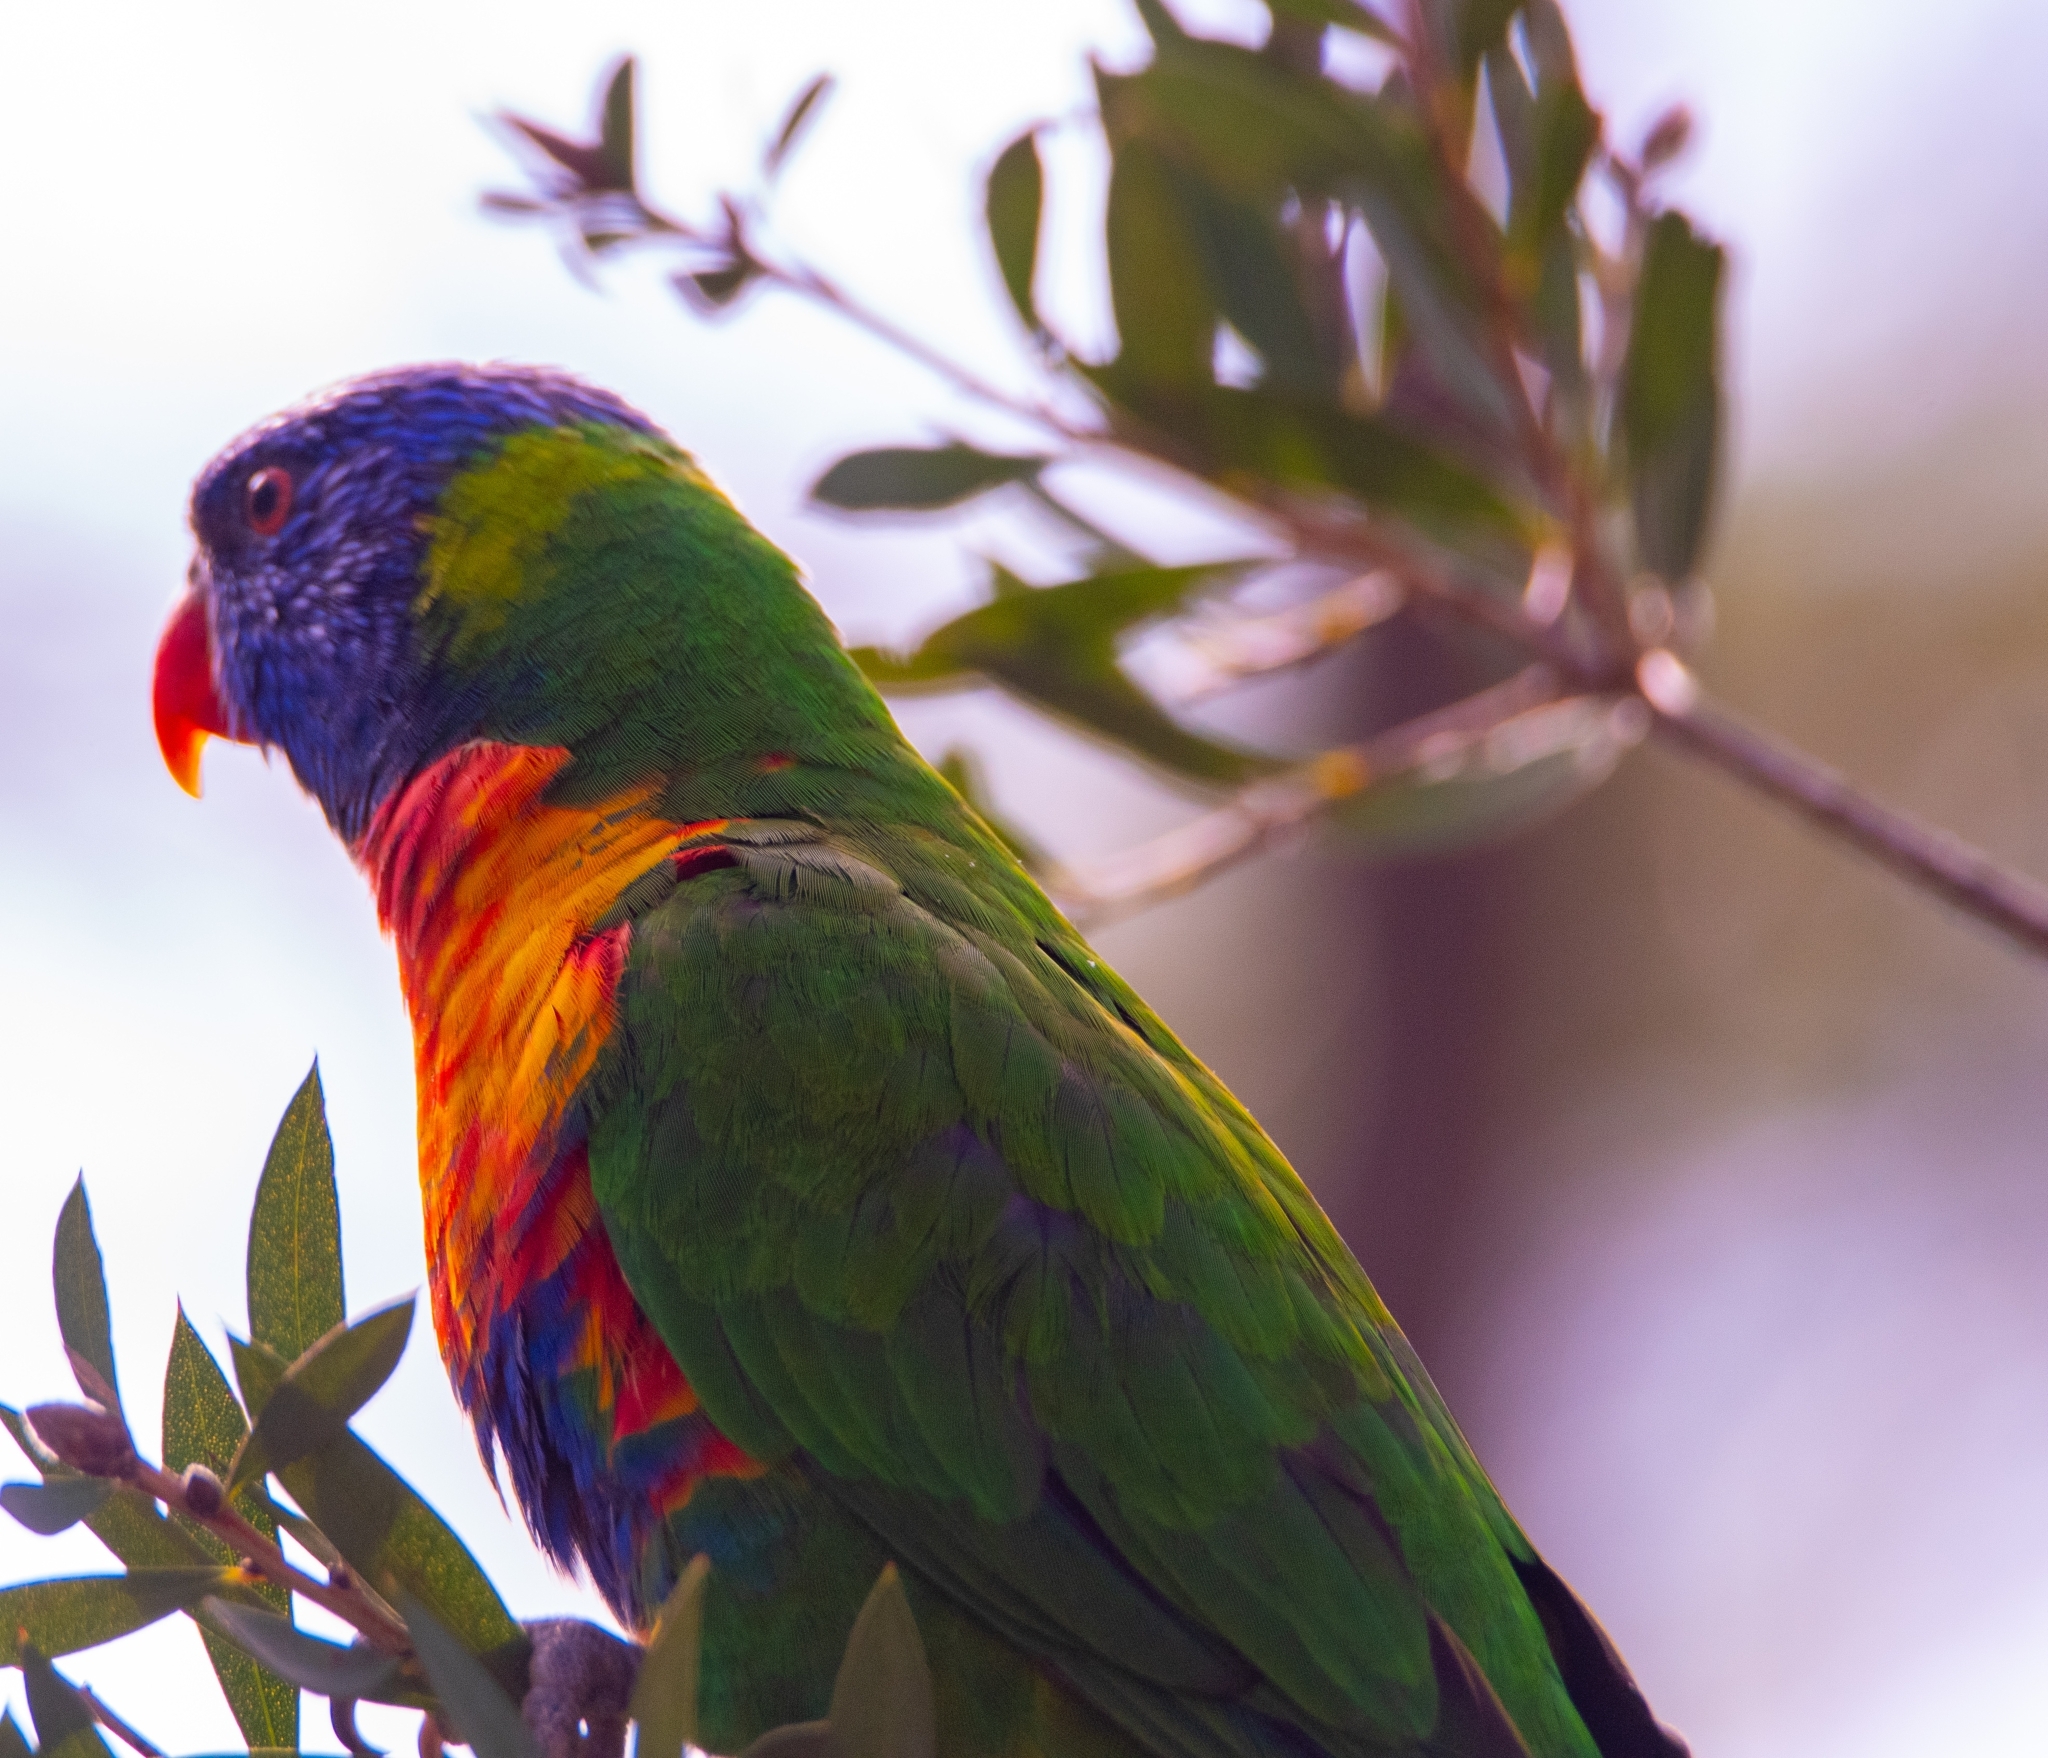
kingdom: Animalia
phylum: Chordata
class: Aves
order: Psittaciformes
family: Psittacidae
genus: Trichoglossus
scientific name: Trichoglossus haematodus
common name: Coconut lorikeet
